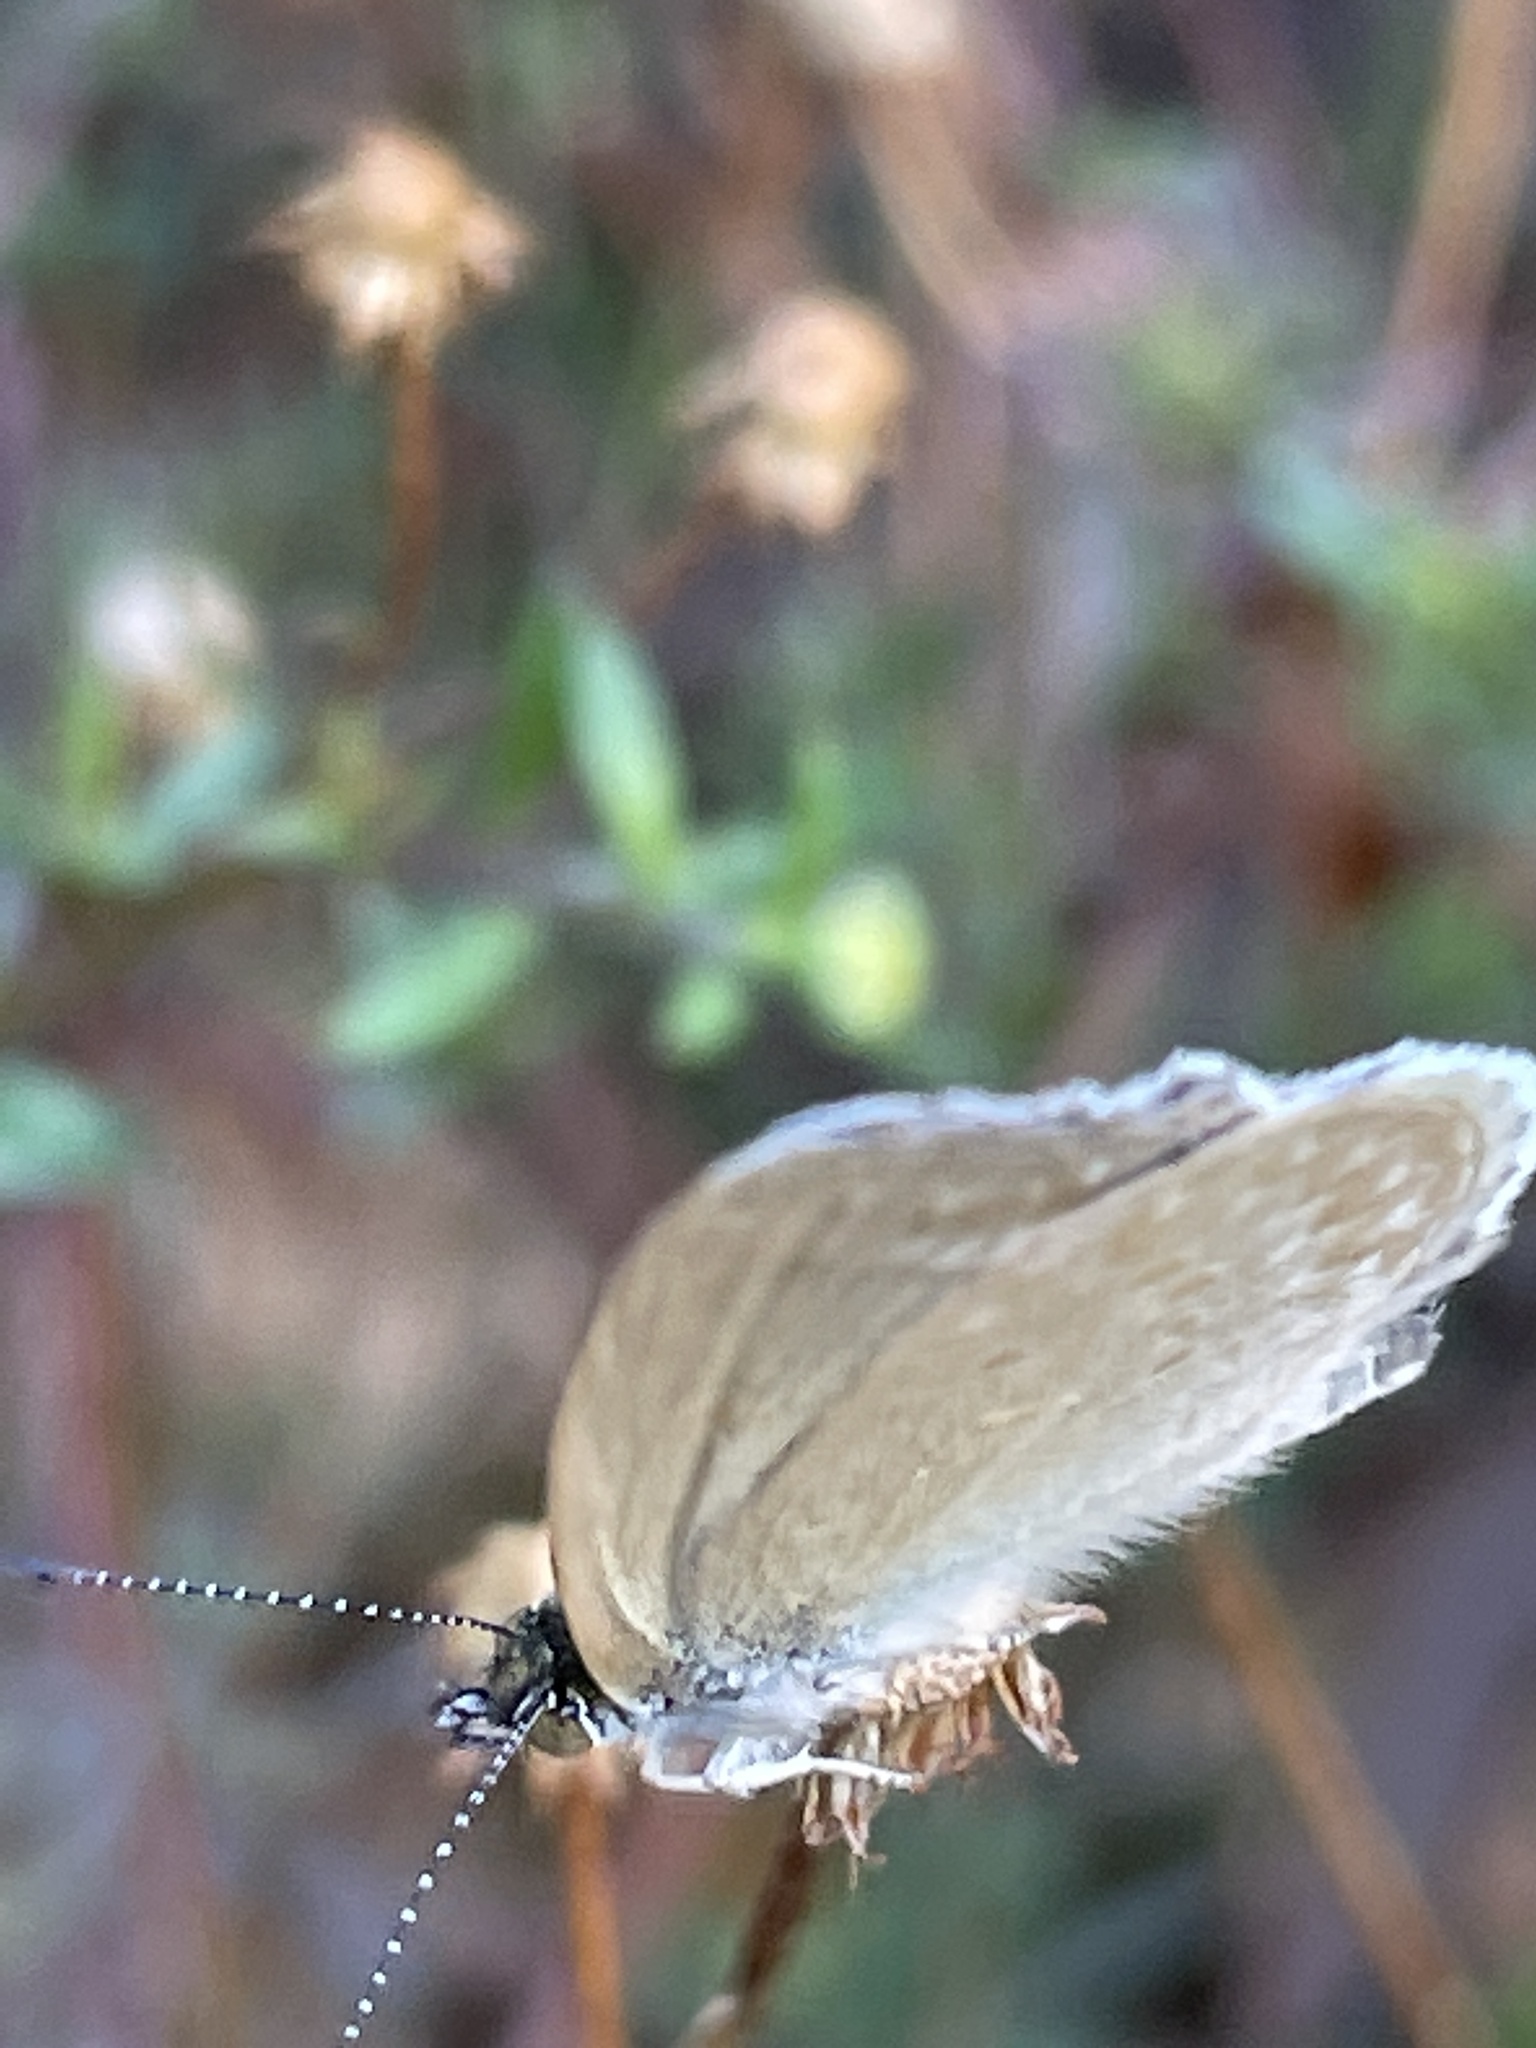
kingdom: Animalia
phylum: Arthropoda
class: Insecta
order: Lepidoptera
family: Lycaenidae
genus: Zizina
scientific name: Zizina otis
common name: Lesser grass blue
